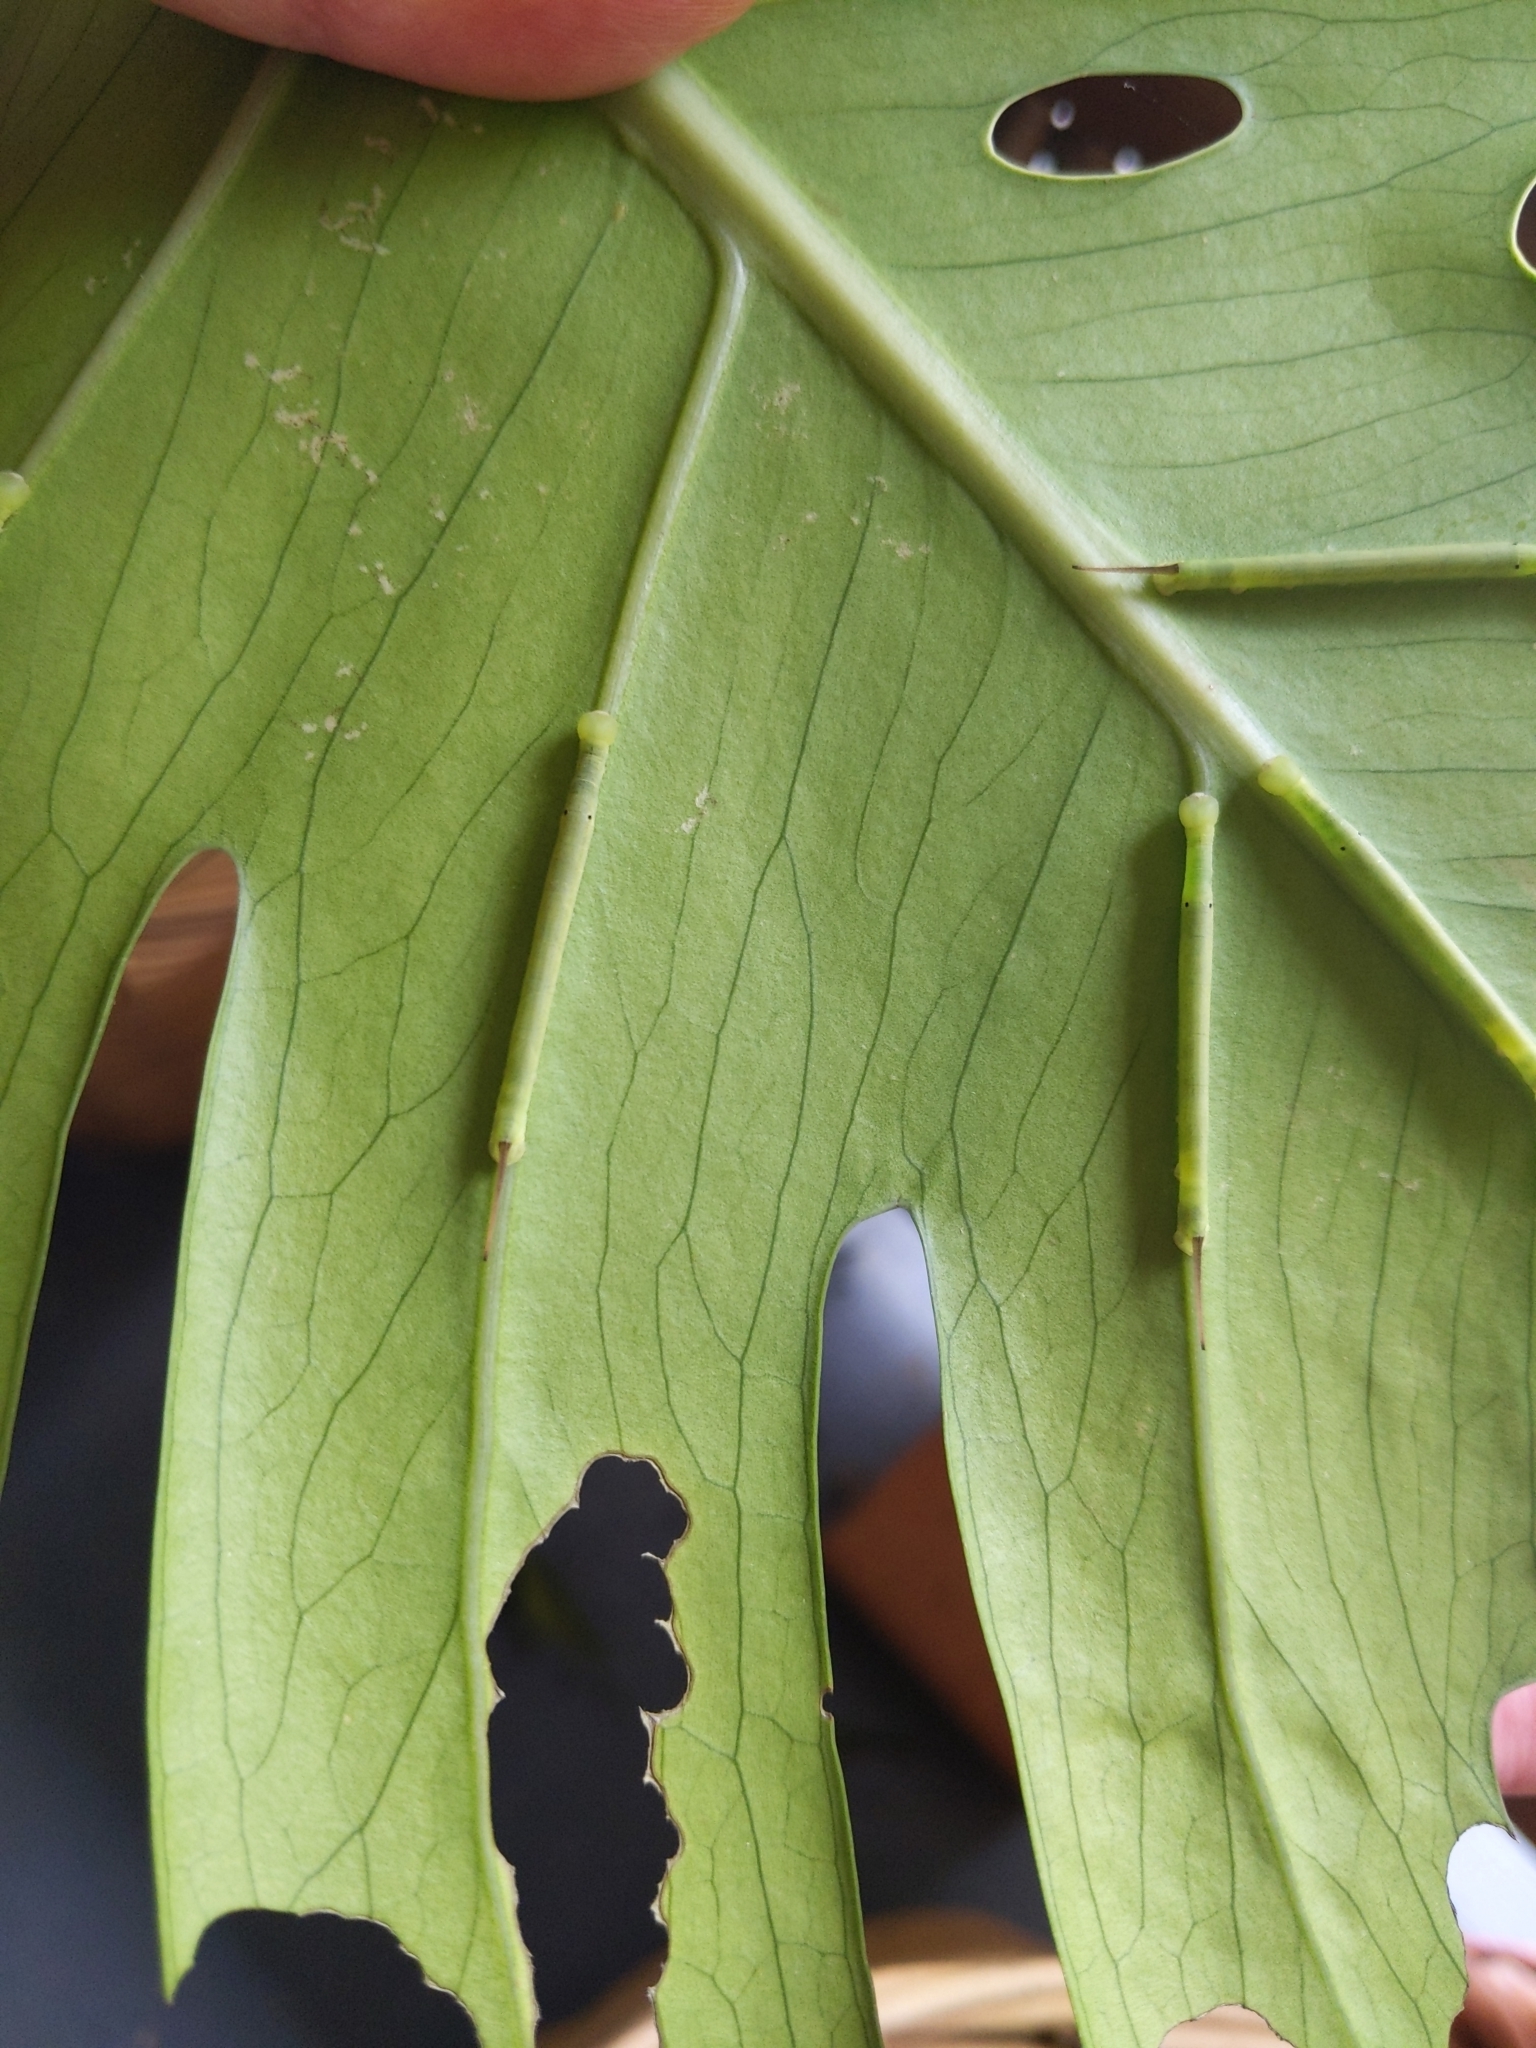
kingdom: Animalia
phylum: Arthropoda
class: Insecta
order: Lepidoptera
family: Sphingidae
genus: Eupanacra
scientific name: Eupanacra splendens
